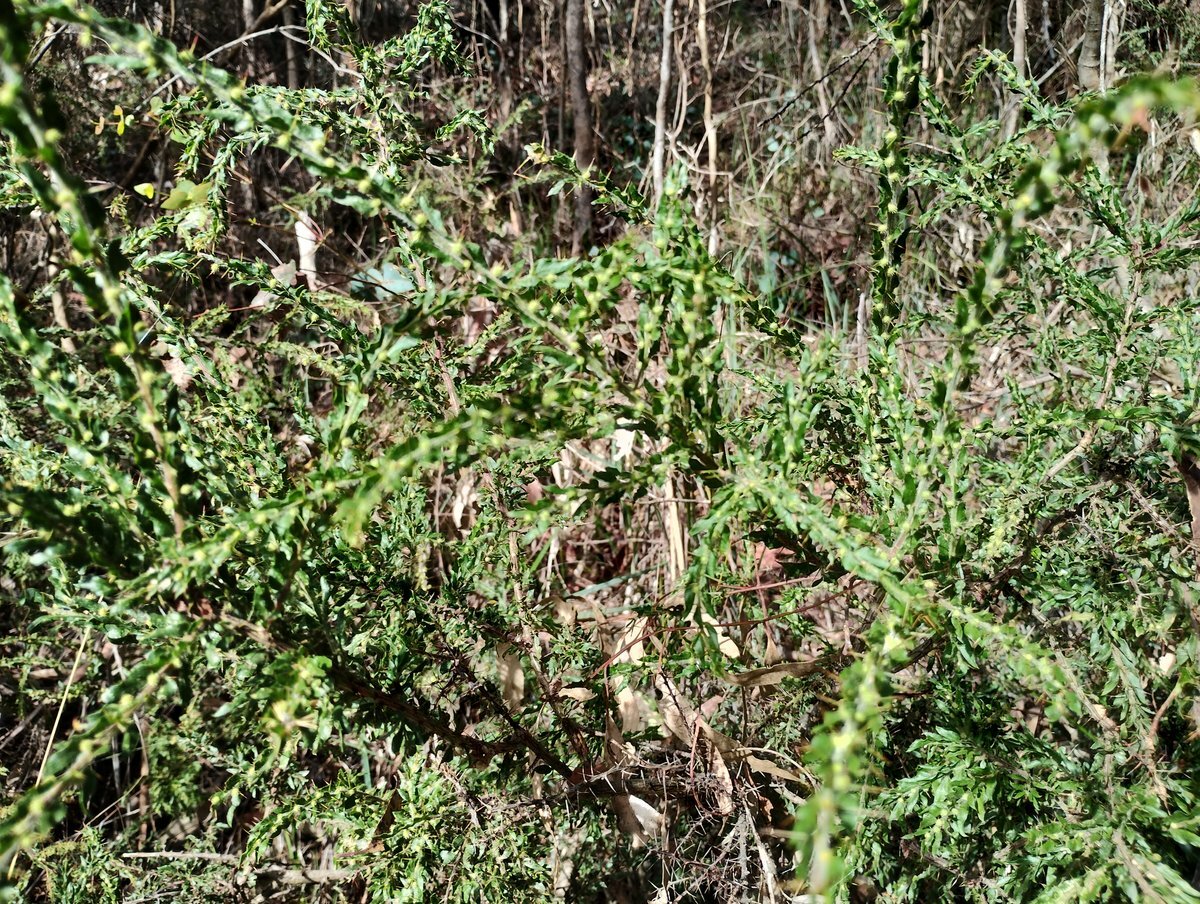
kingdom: Plantae
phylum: Tracheophyta
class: Magnoliopsida
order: Fabales
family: Fabaceae
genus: Acacia
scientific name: Acacia paradoxa
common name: Paradox acacia
